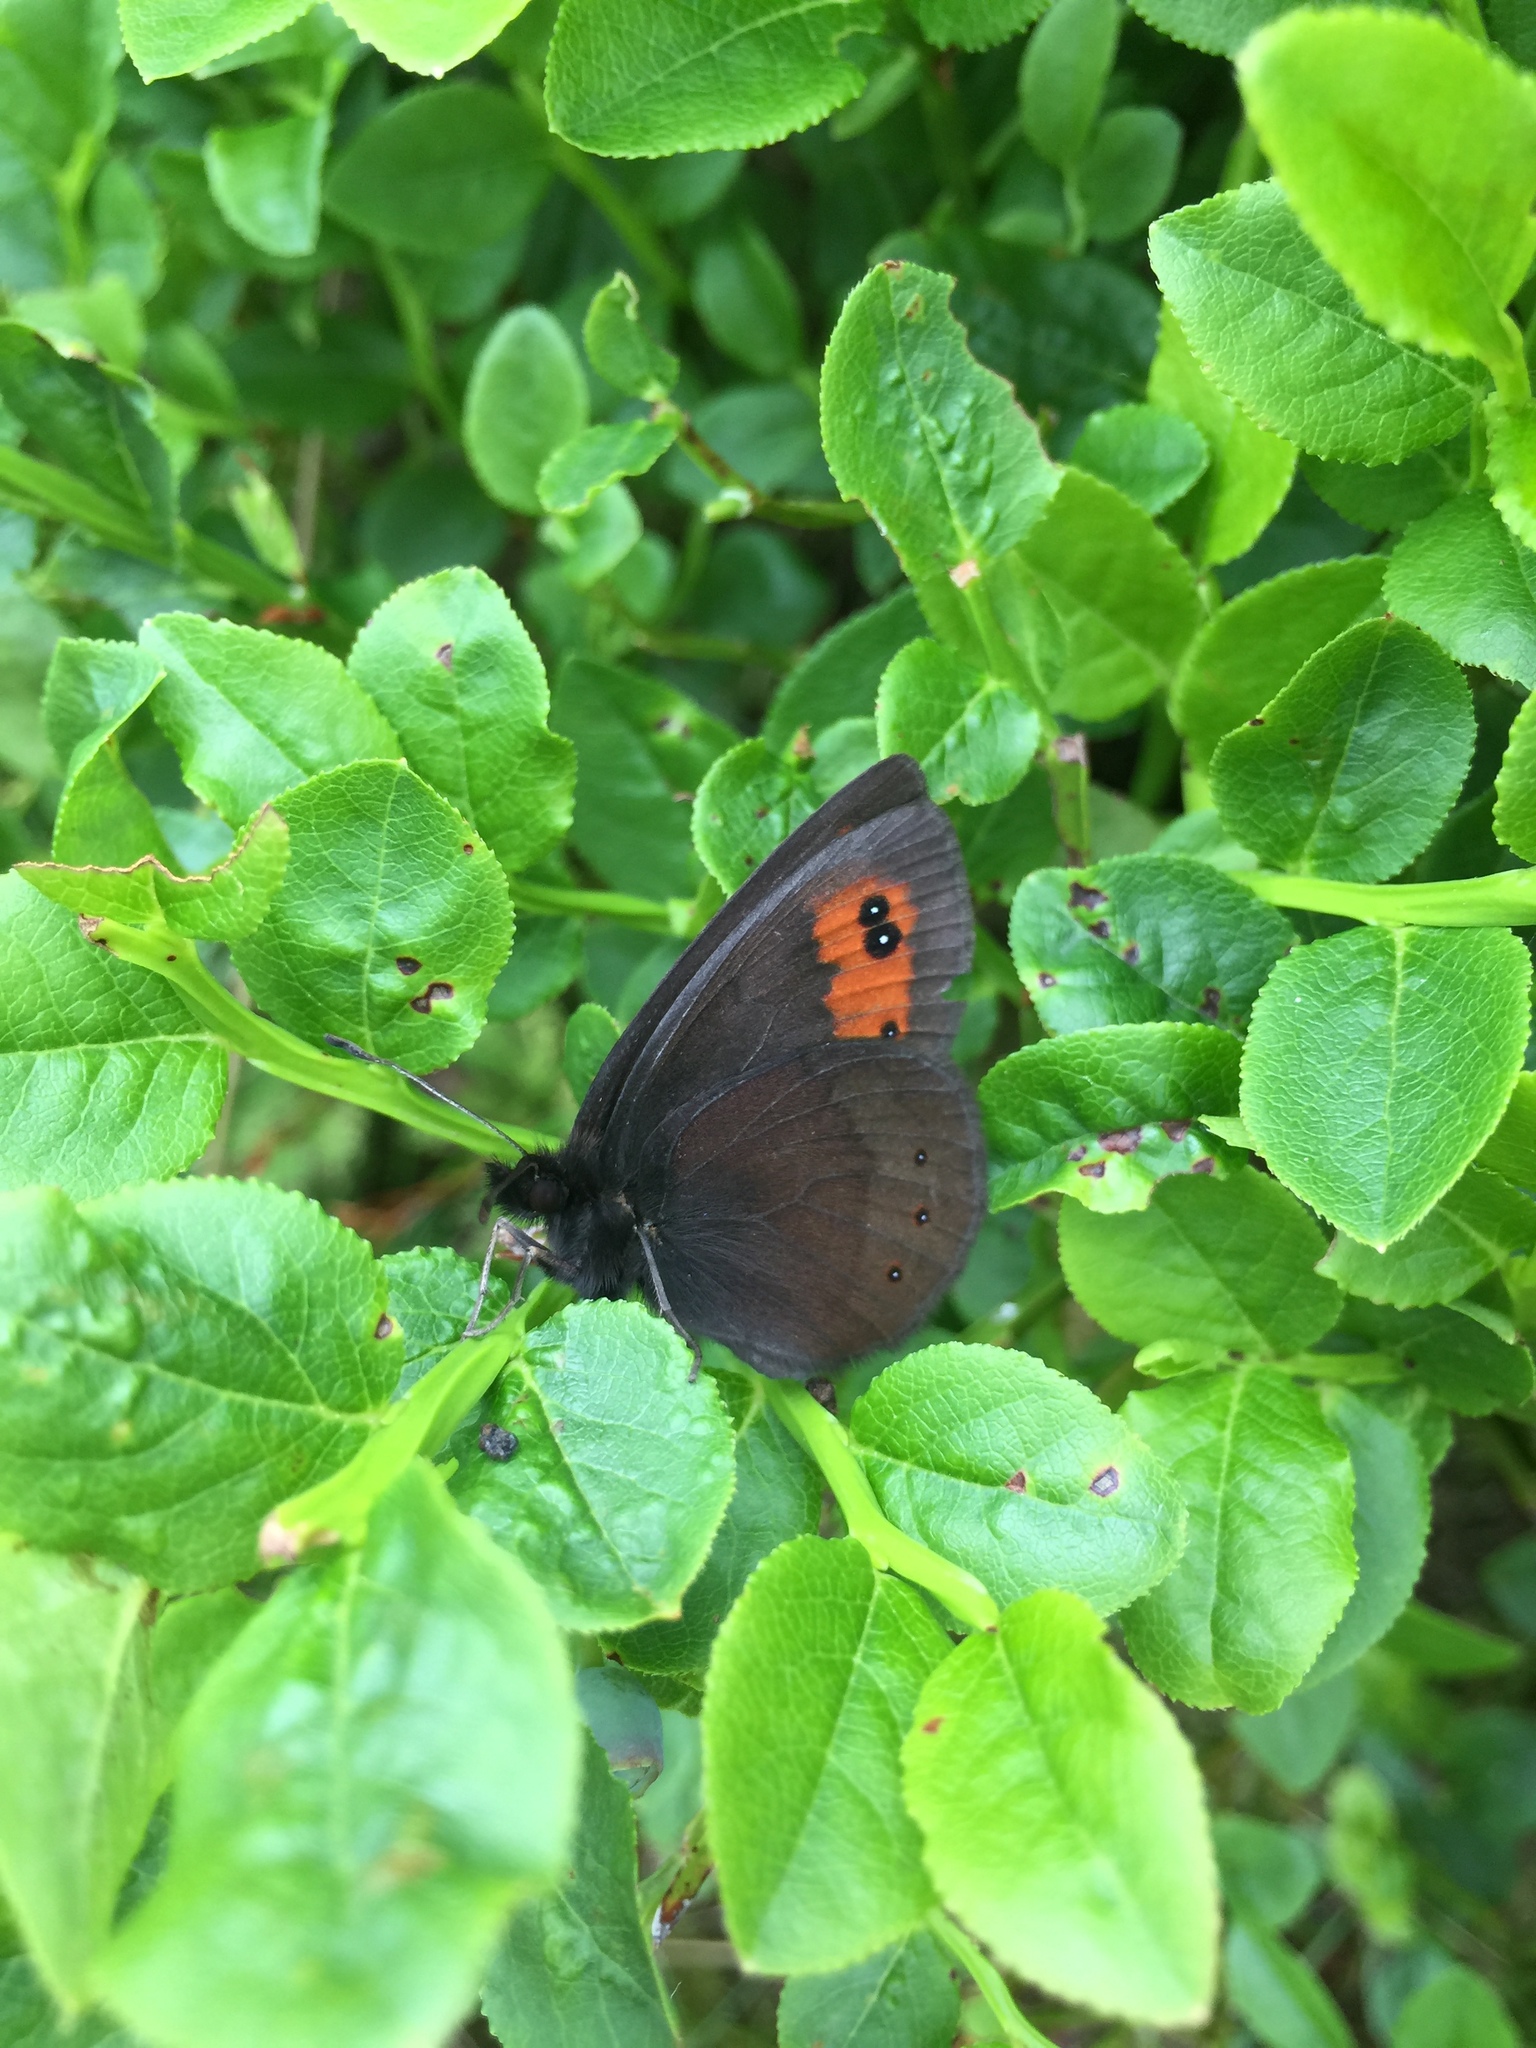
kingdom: Animalia
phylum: Arthropoda
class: Insecta
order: Lepidoptera
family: Nymphalidae
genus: Erebia
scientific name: Erebia meolans
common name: Piedmont ringlet
